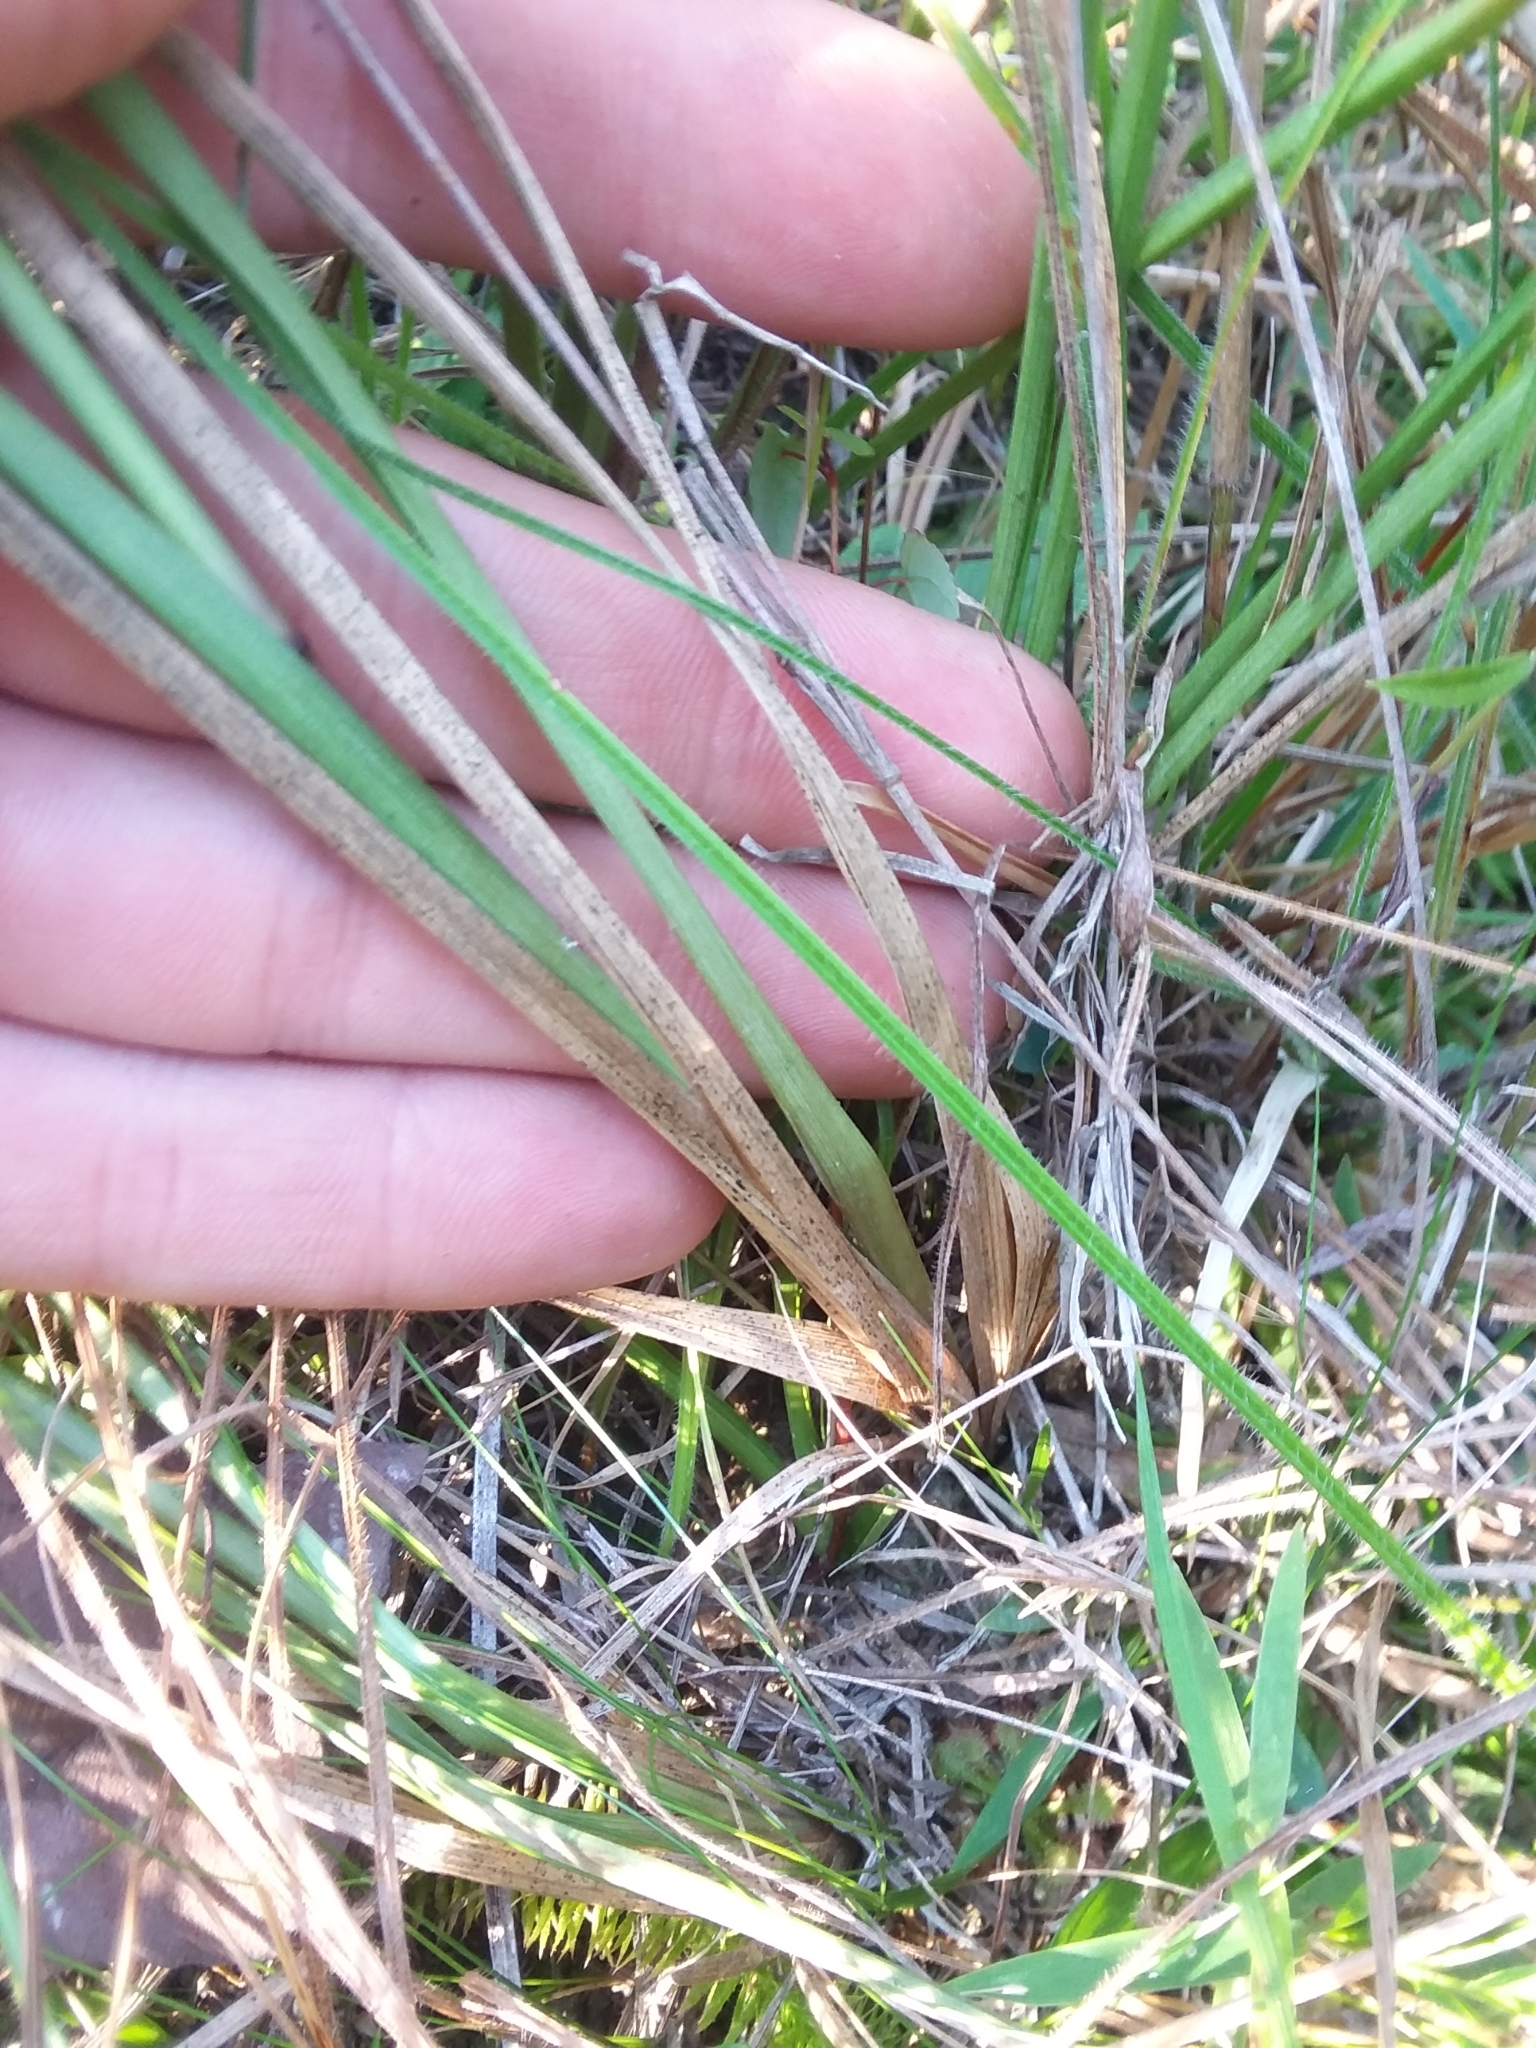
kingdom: Plantae
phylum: Tracheophyta
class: Liliopsida
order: Poales
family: Poaceae
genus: Anthenantia
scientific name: Anthenantia rufa
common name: Purple silkyscale
